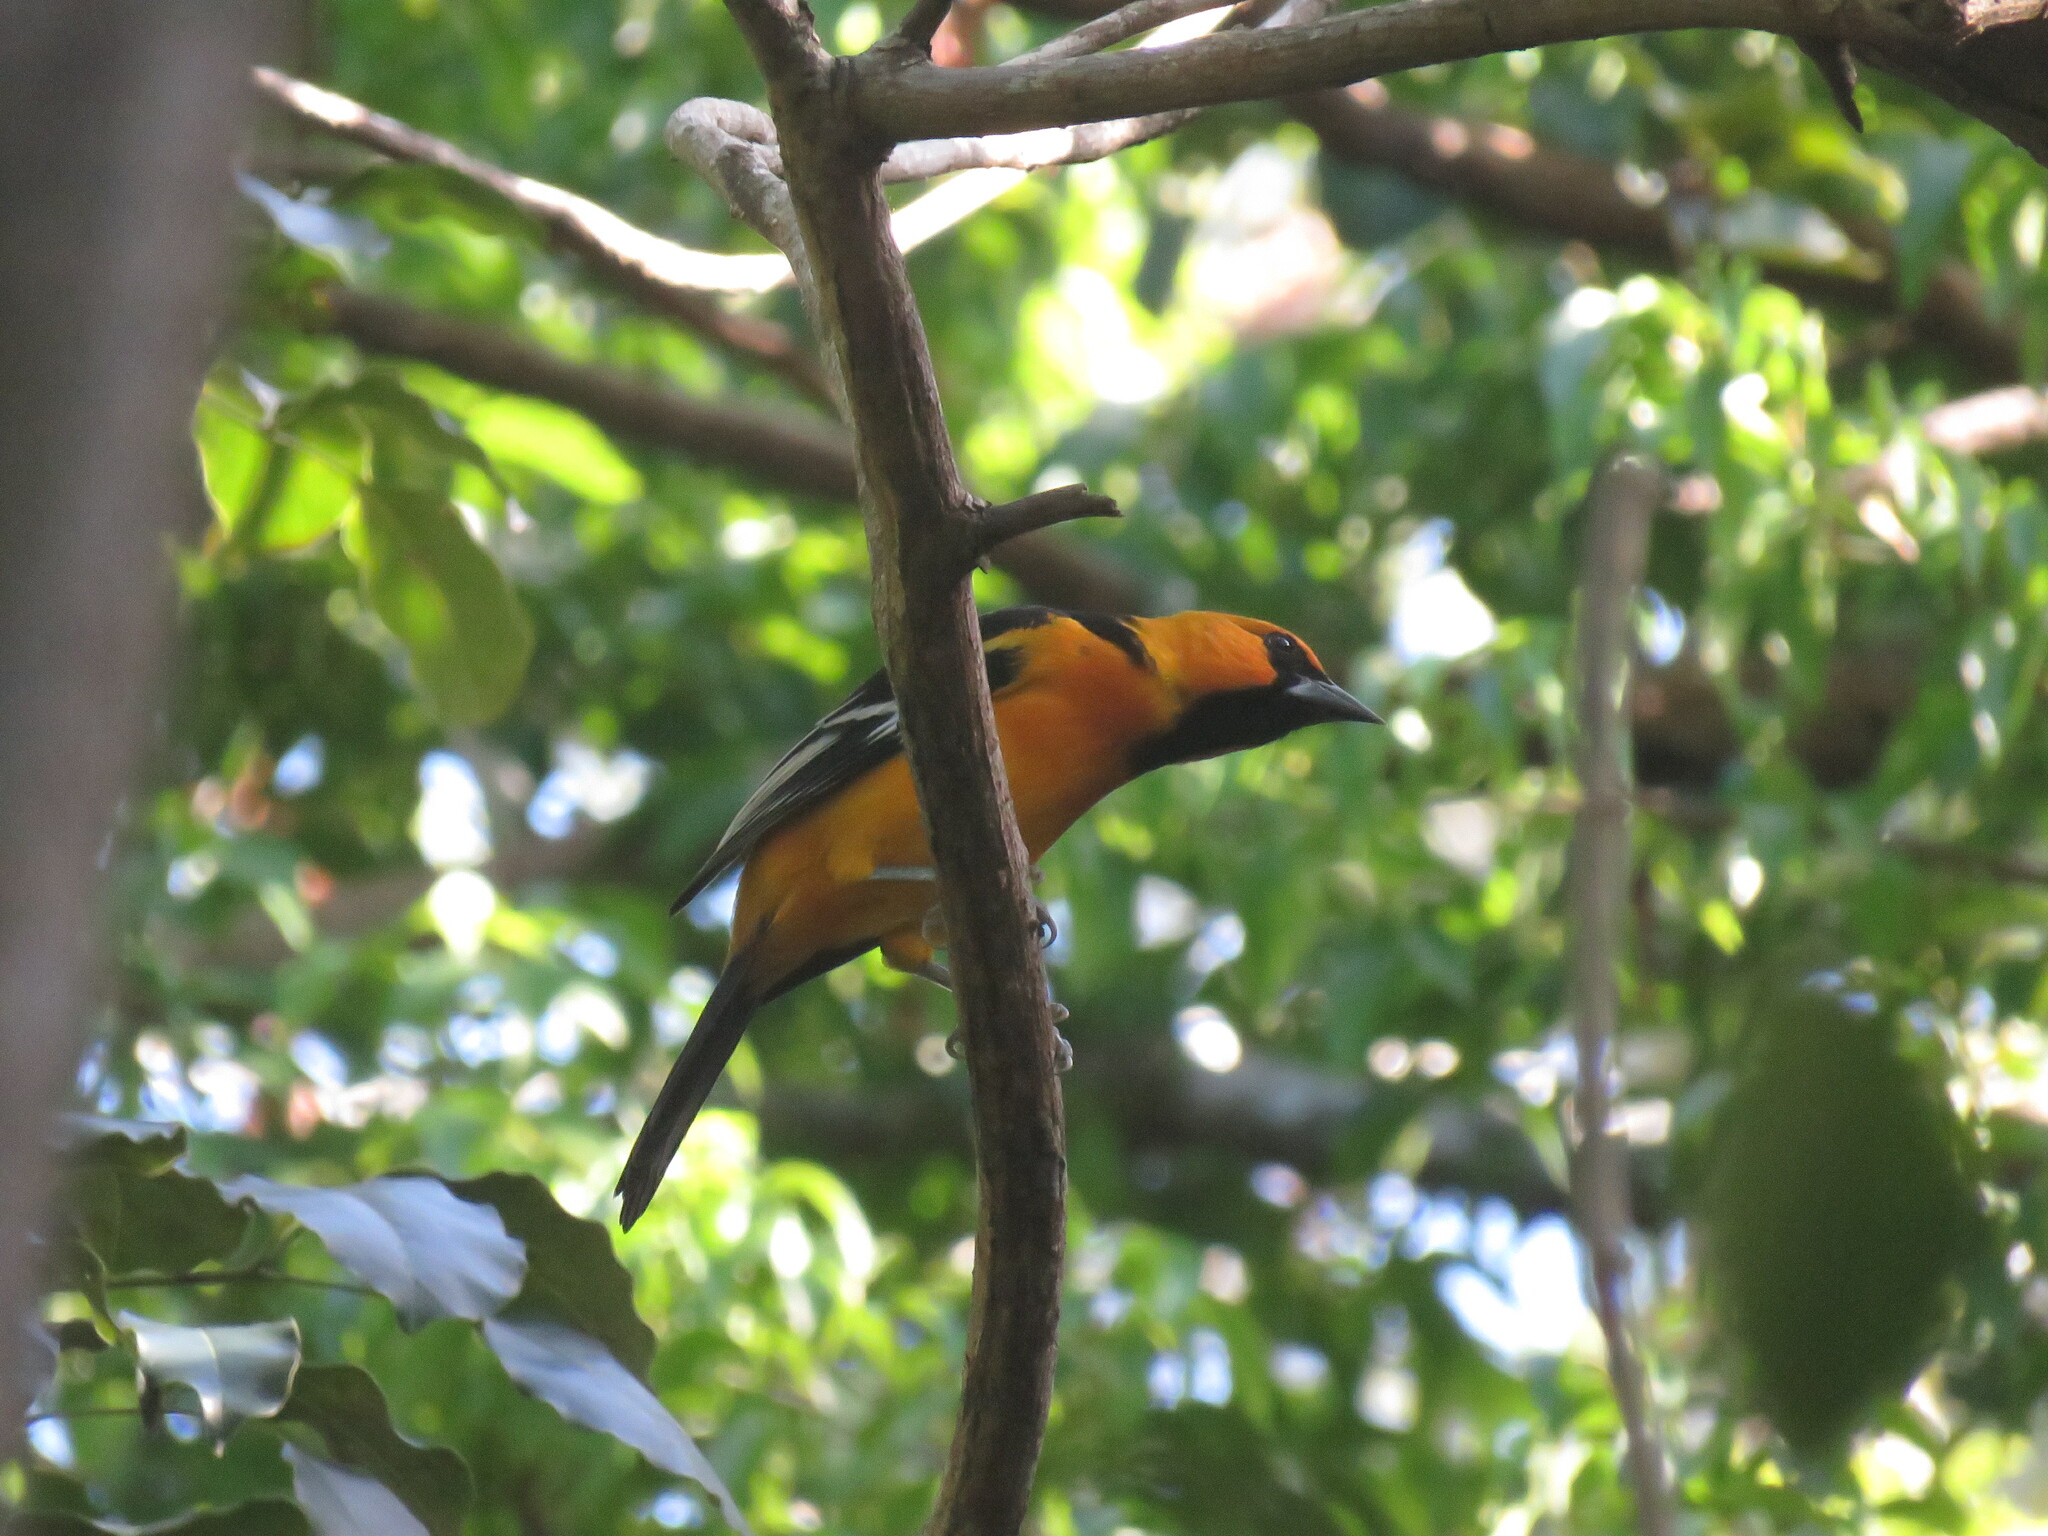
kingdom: Animalia
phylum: Chordata
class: Aves
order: Passeriformes
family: Icteridae
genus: Icterus
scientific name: Icterus gularis
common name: Altamira oriole
